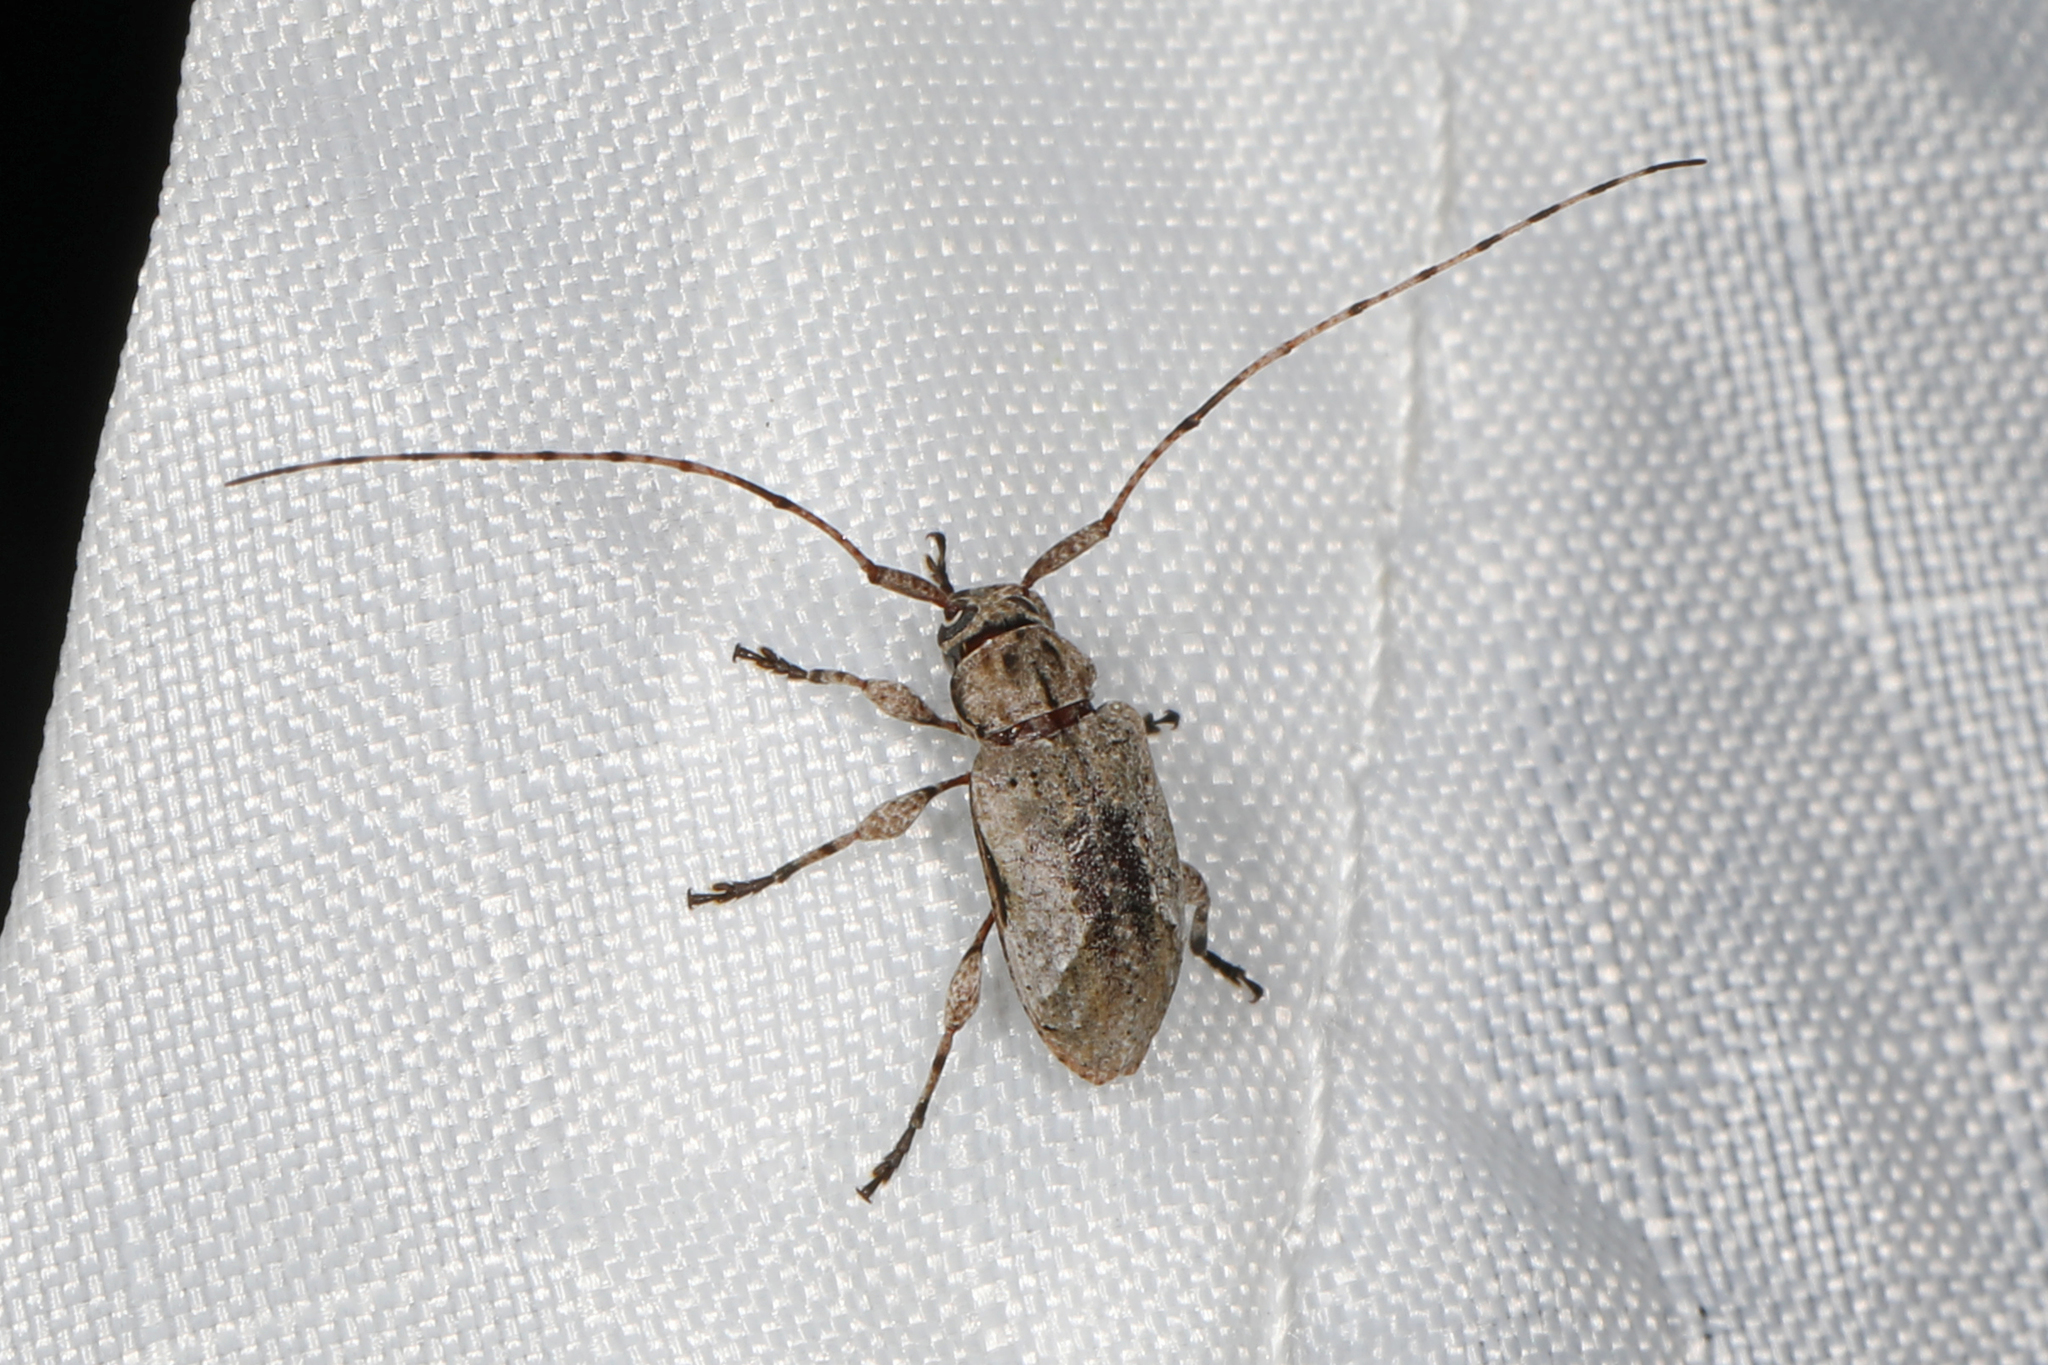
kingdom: Animalia
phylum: Arthropoda
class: Insecta
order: Coleoptera
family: Cerambycidae
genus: Styloleptus
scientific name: Styloleptus biustus
